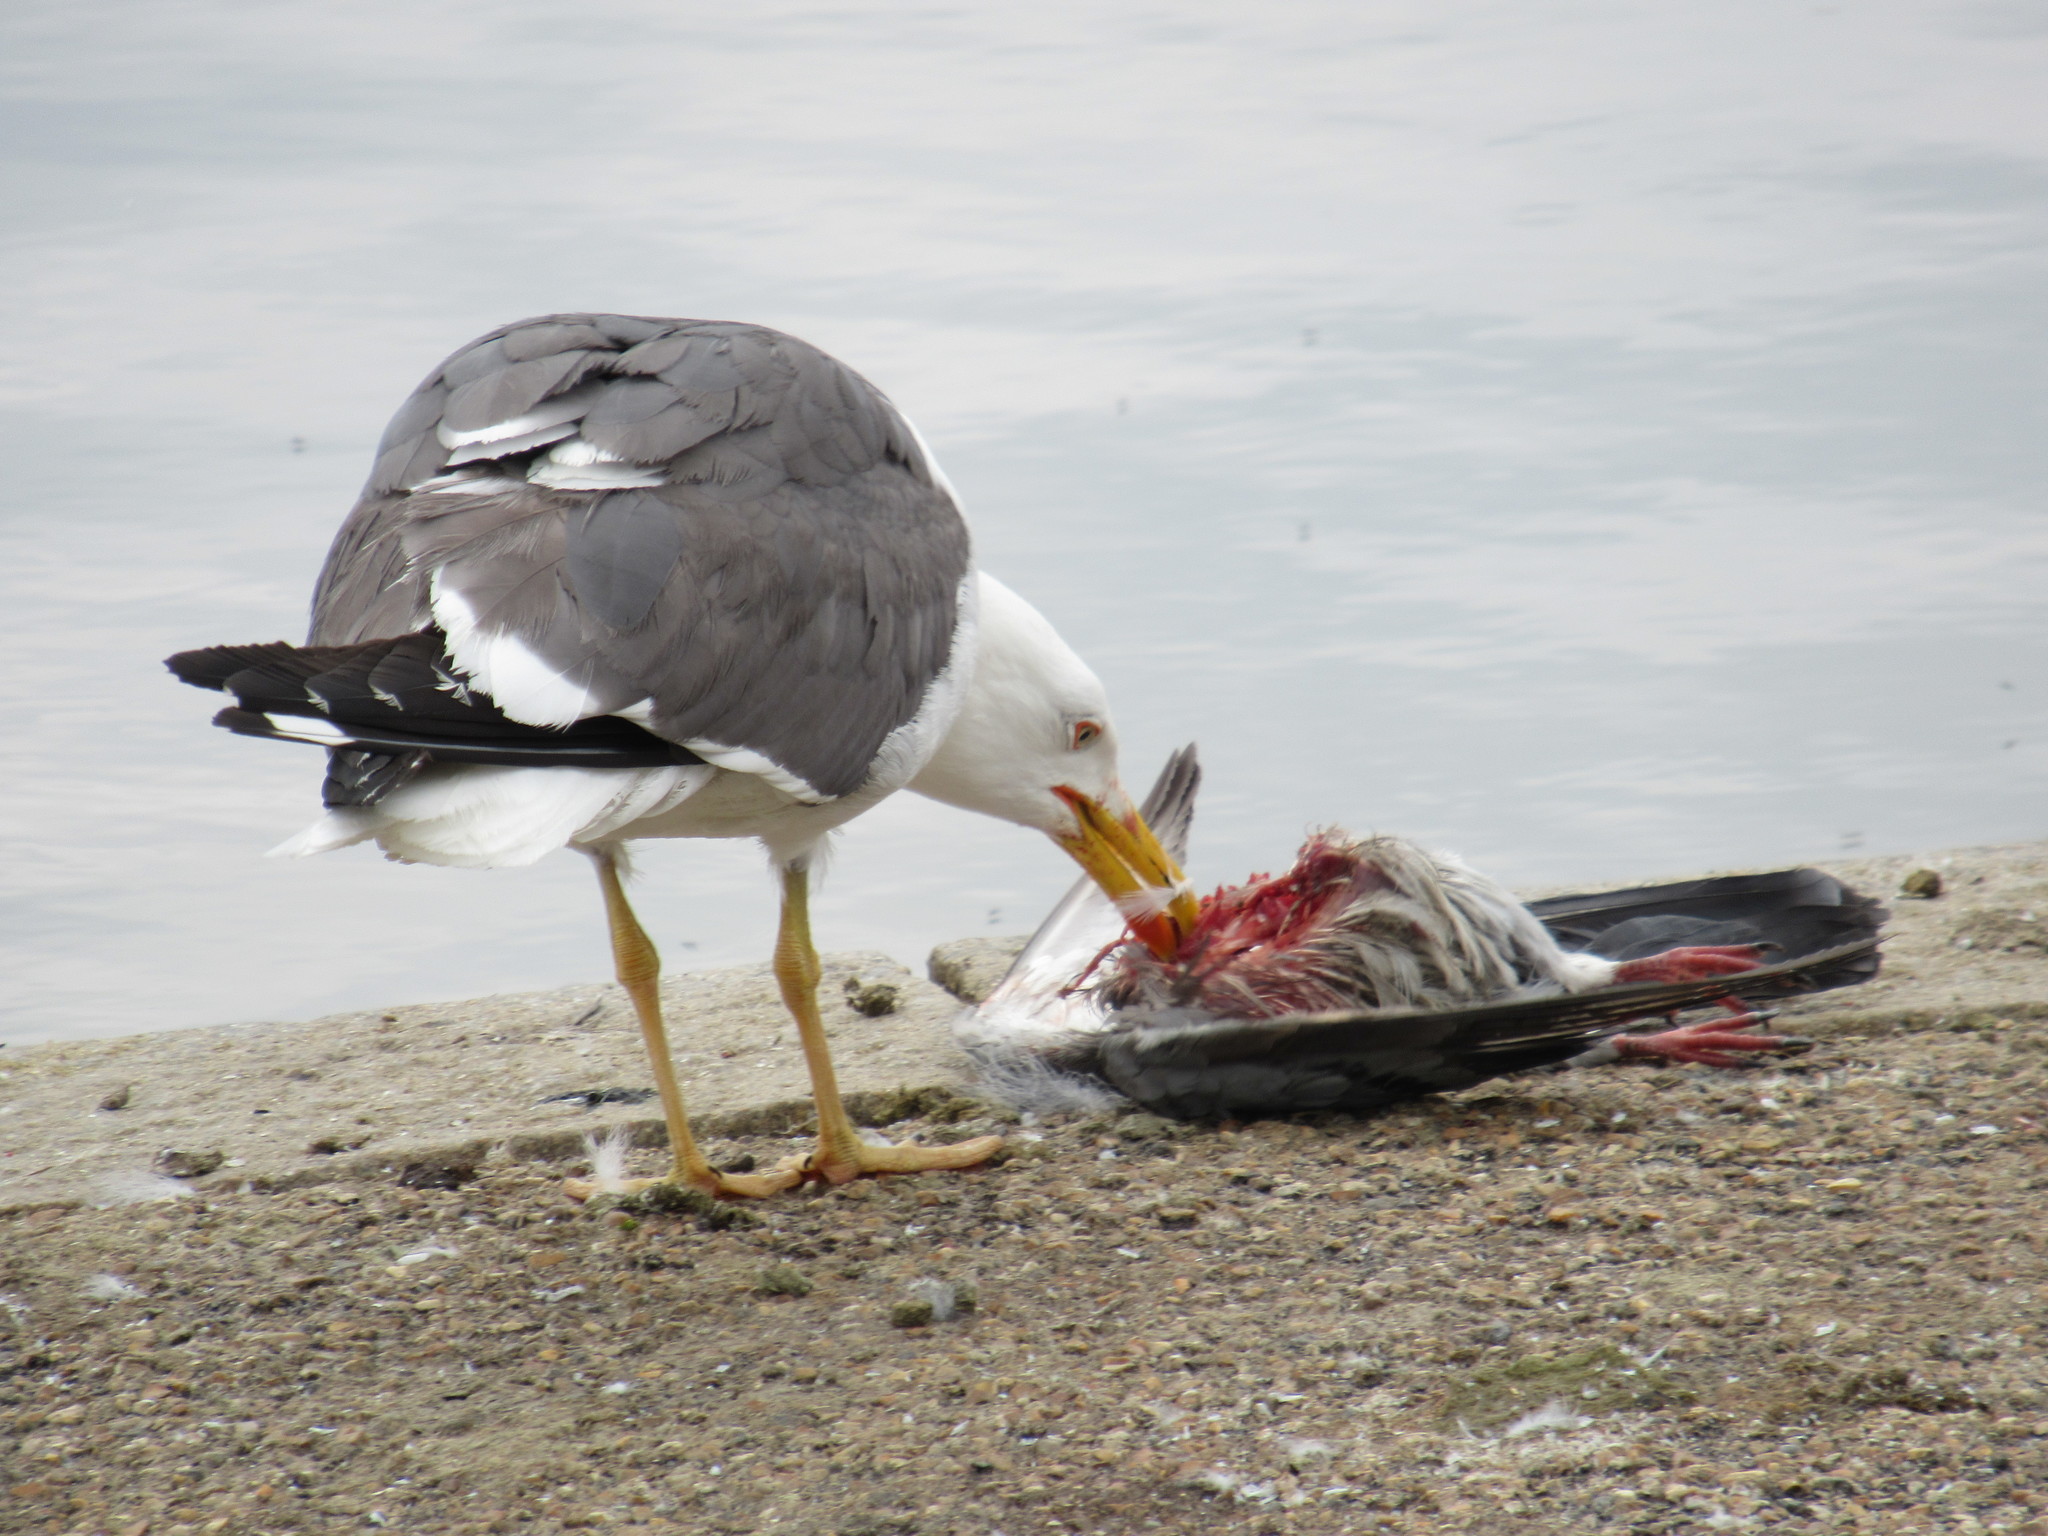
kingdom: Animalia
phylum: Chordata
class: Aves
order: Charadriiformes
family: Laridae
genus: Larus
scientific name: Larus fuscus
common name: Lesser black-backed gull
